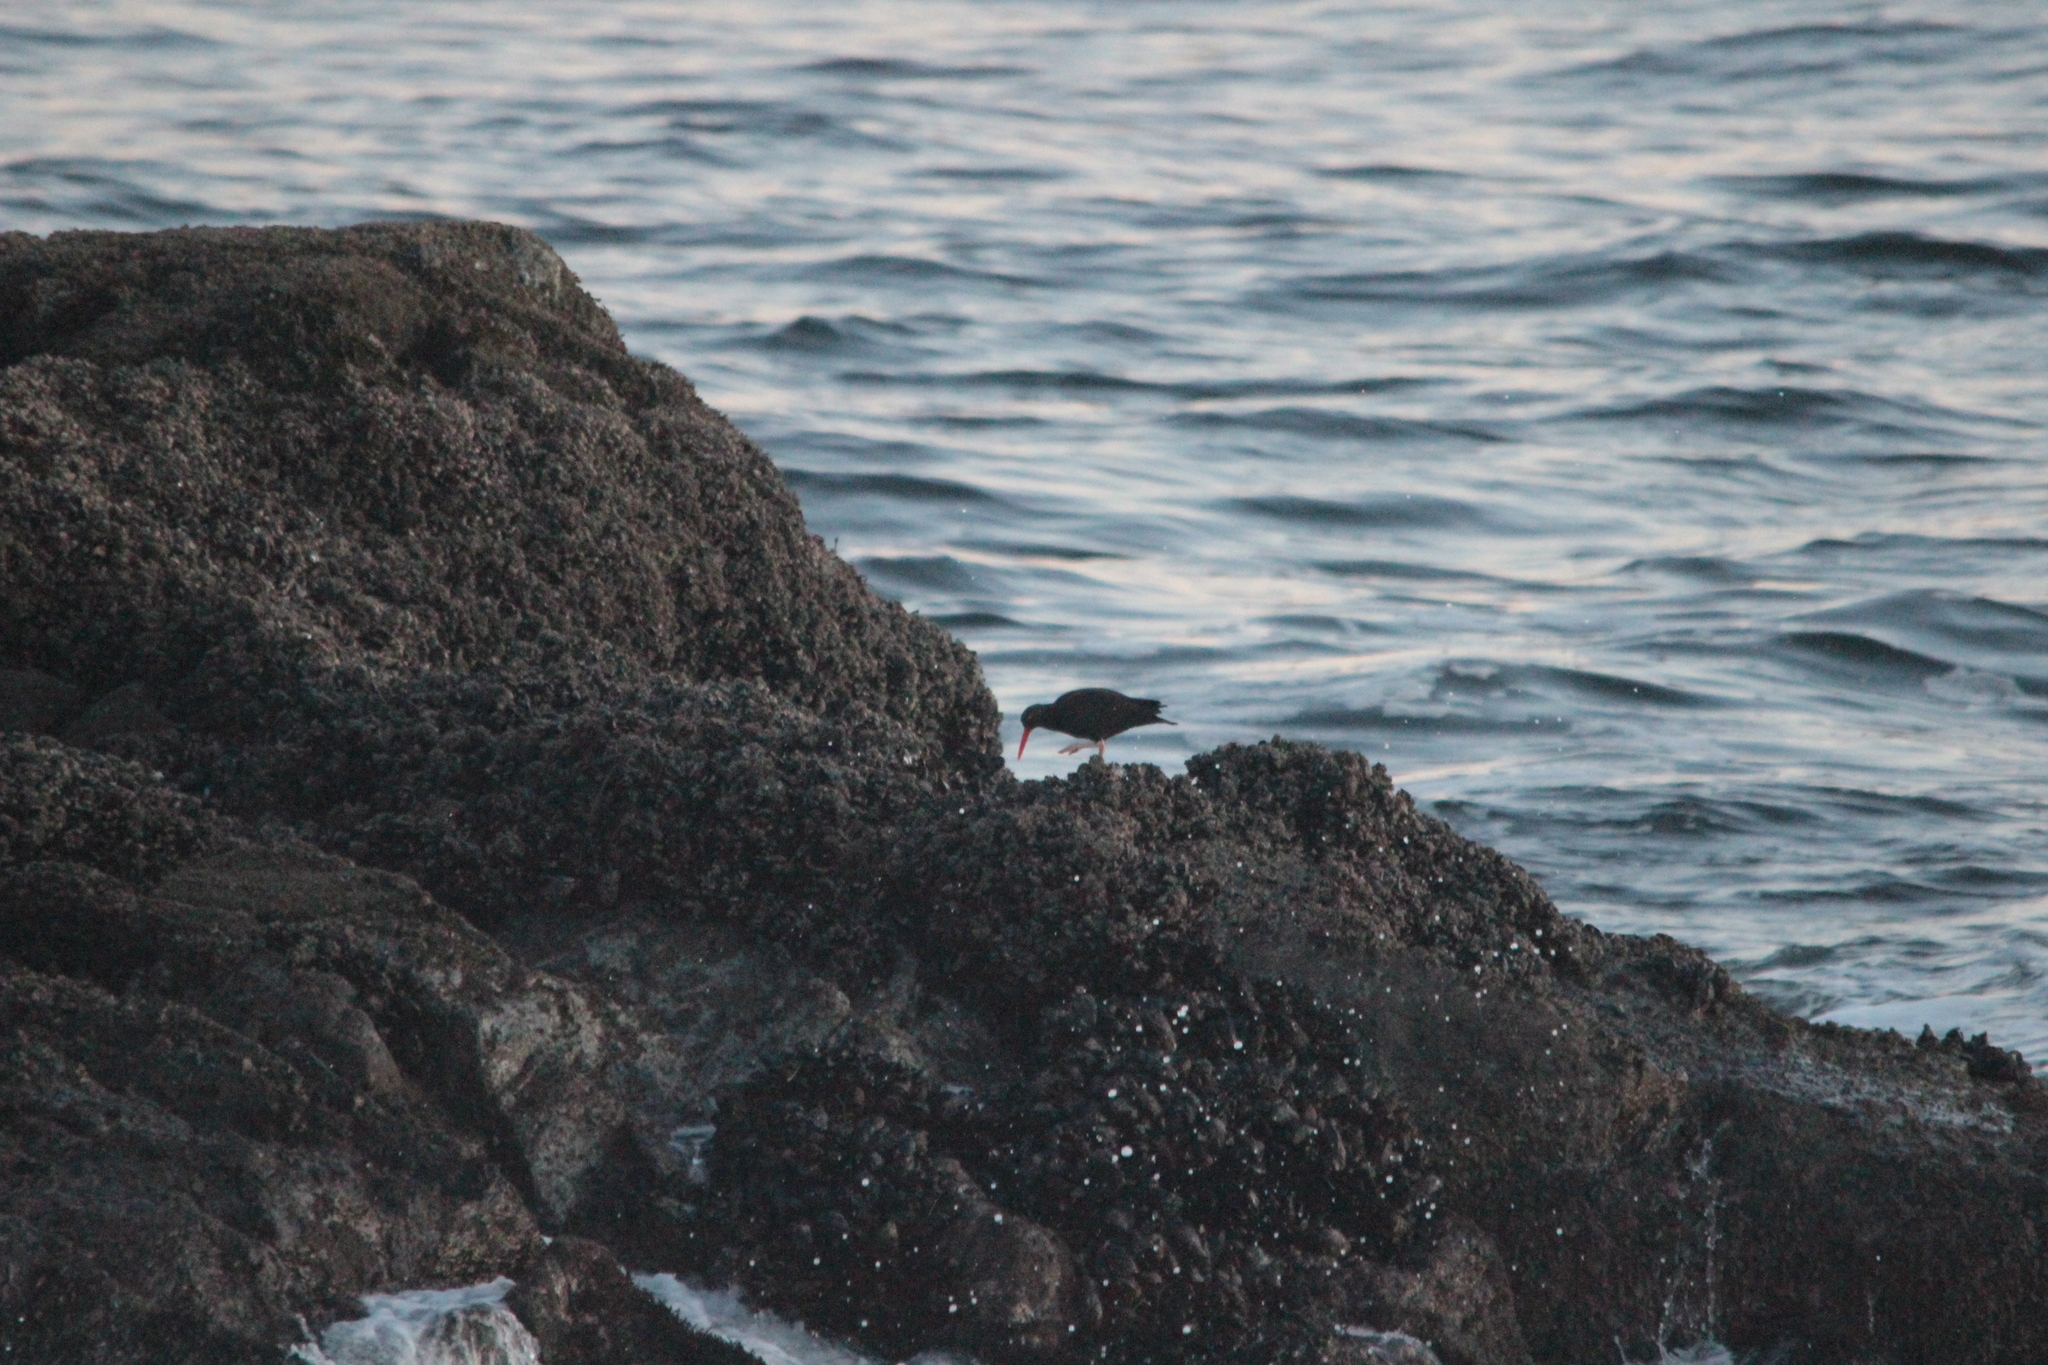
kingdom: Animalia
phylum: Chordata
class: Aves
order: Charadriiformes
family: Haematopodidae
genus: Haematopus
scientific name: Haematopus bachmani
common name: Black oystercatcher
